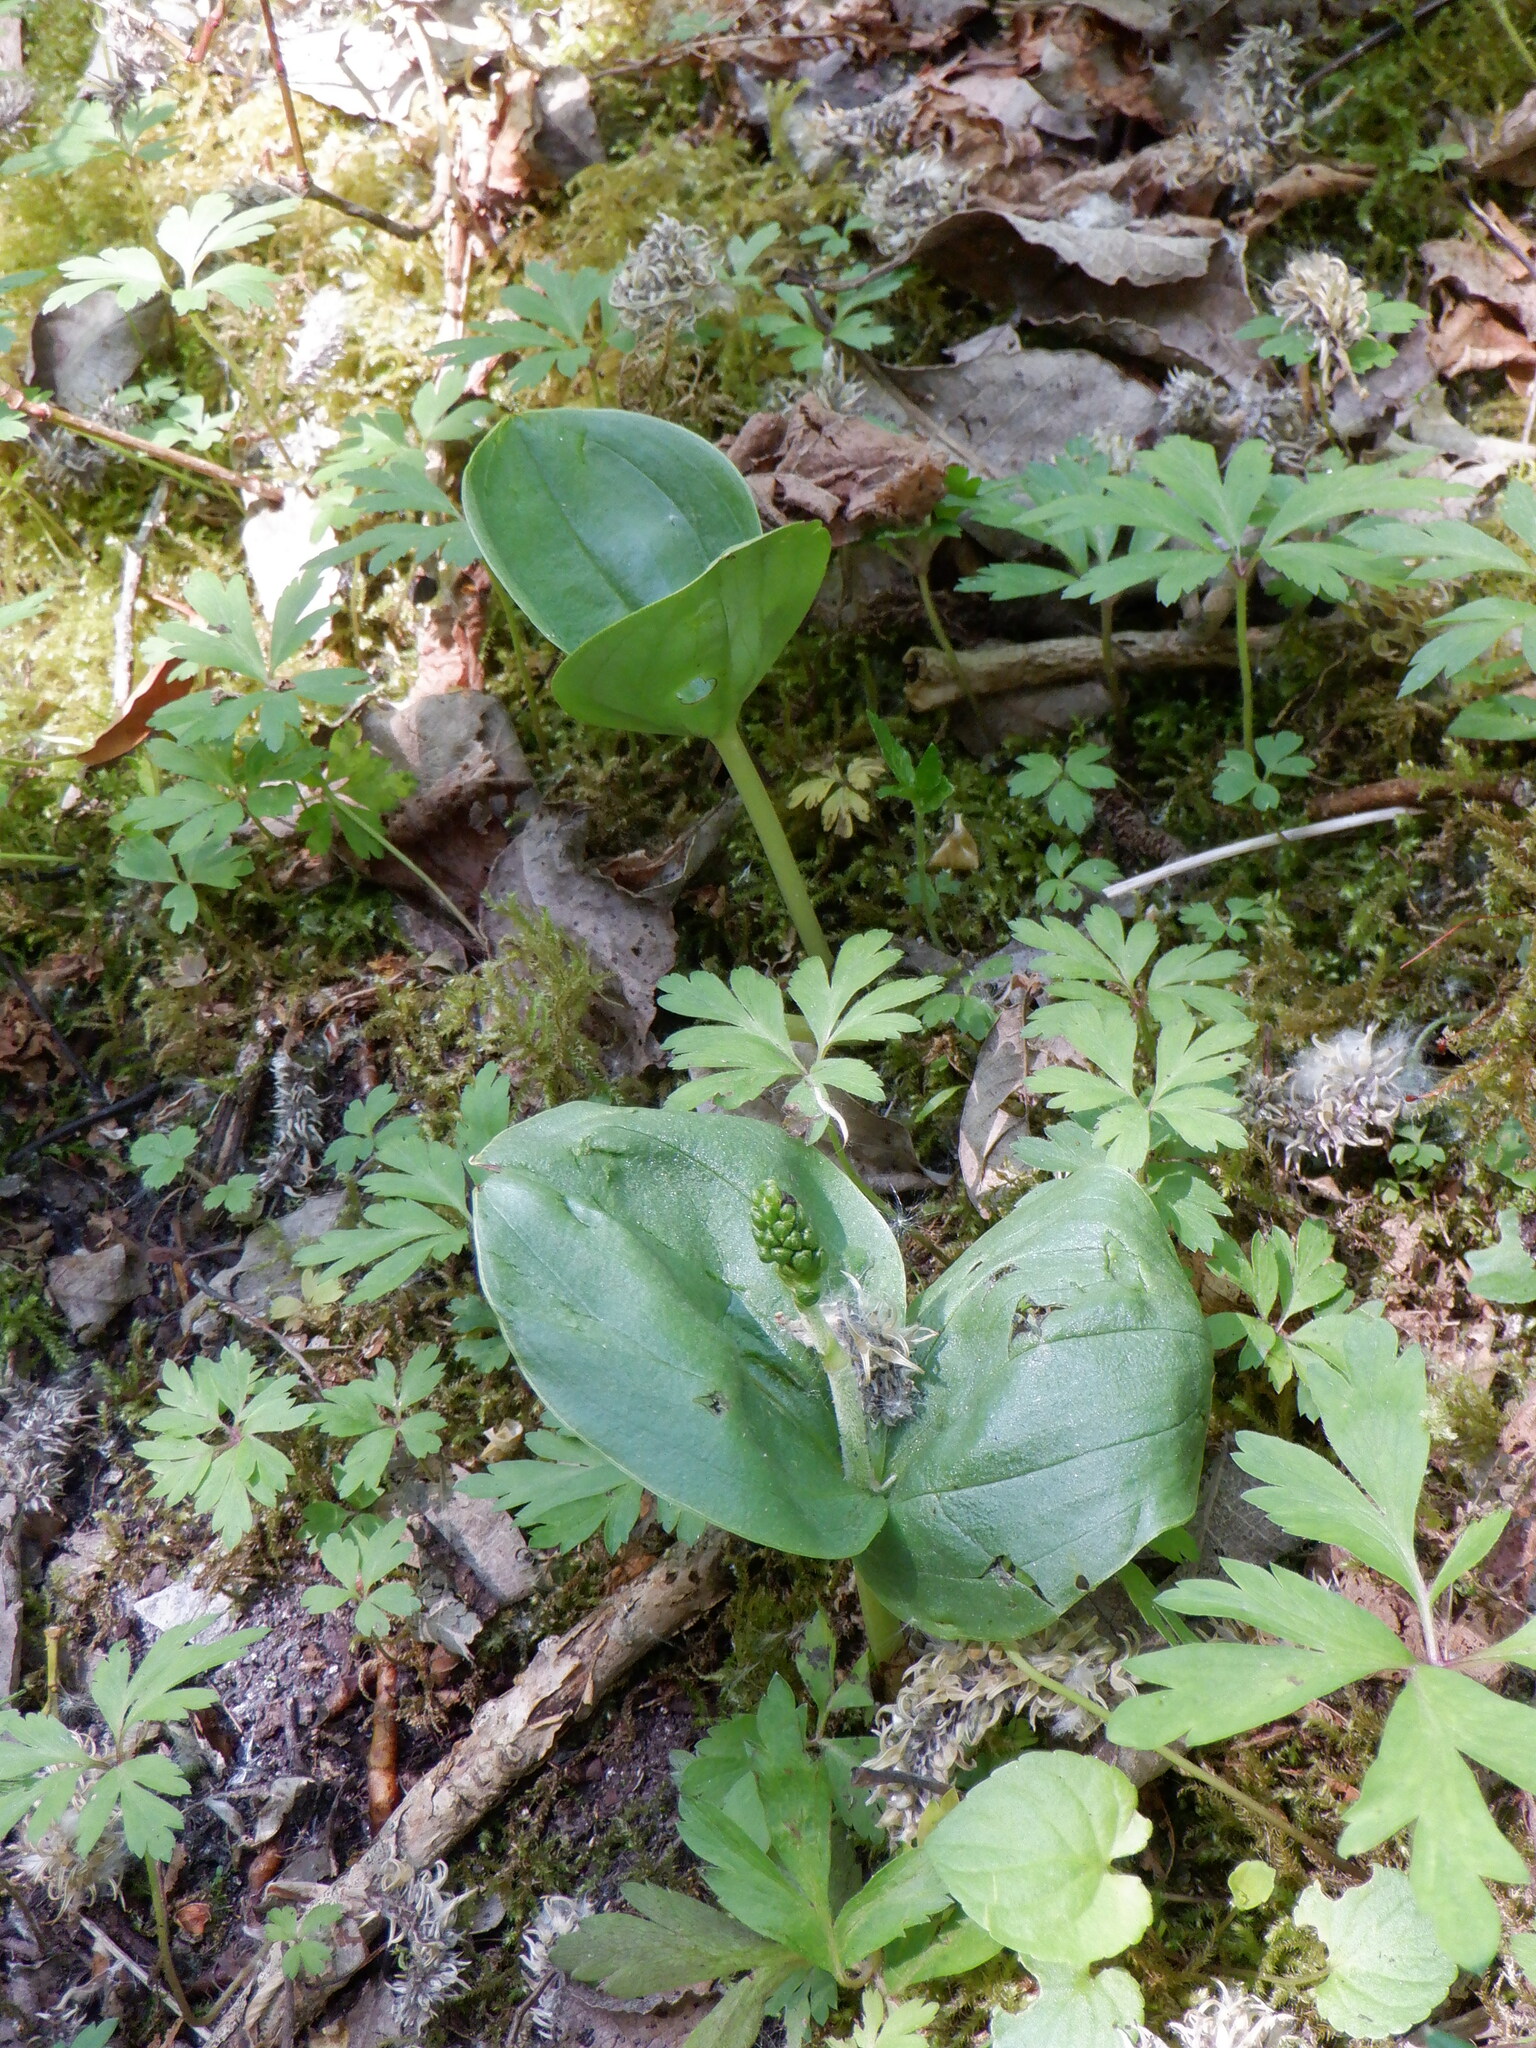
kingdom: Plantae
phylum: Tracheophyta
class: Liliopsida
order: Asparagales
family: Orchidaceae
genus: Neottia
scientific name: Neottia ovata
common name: Common twayblade
